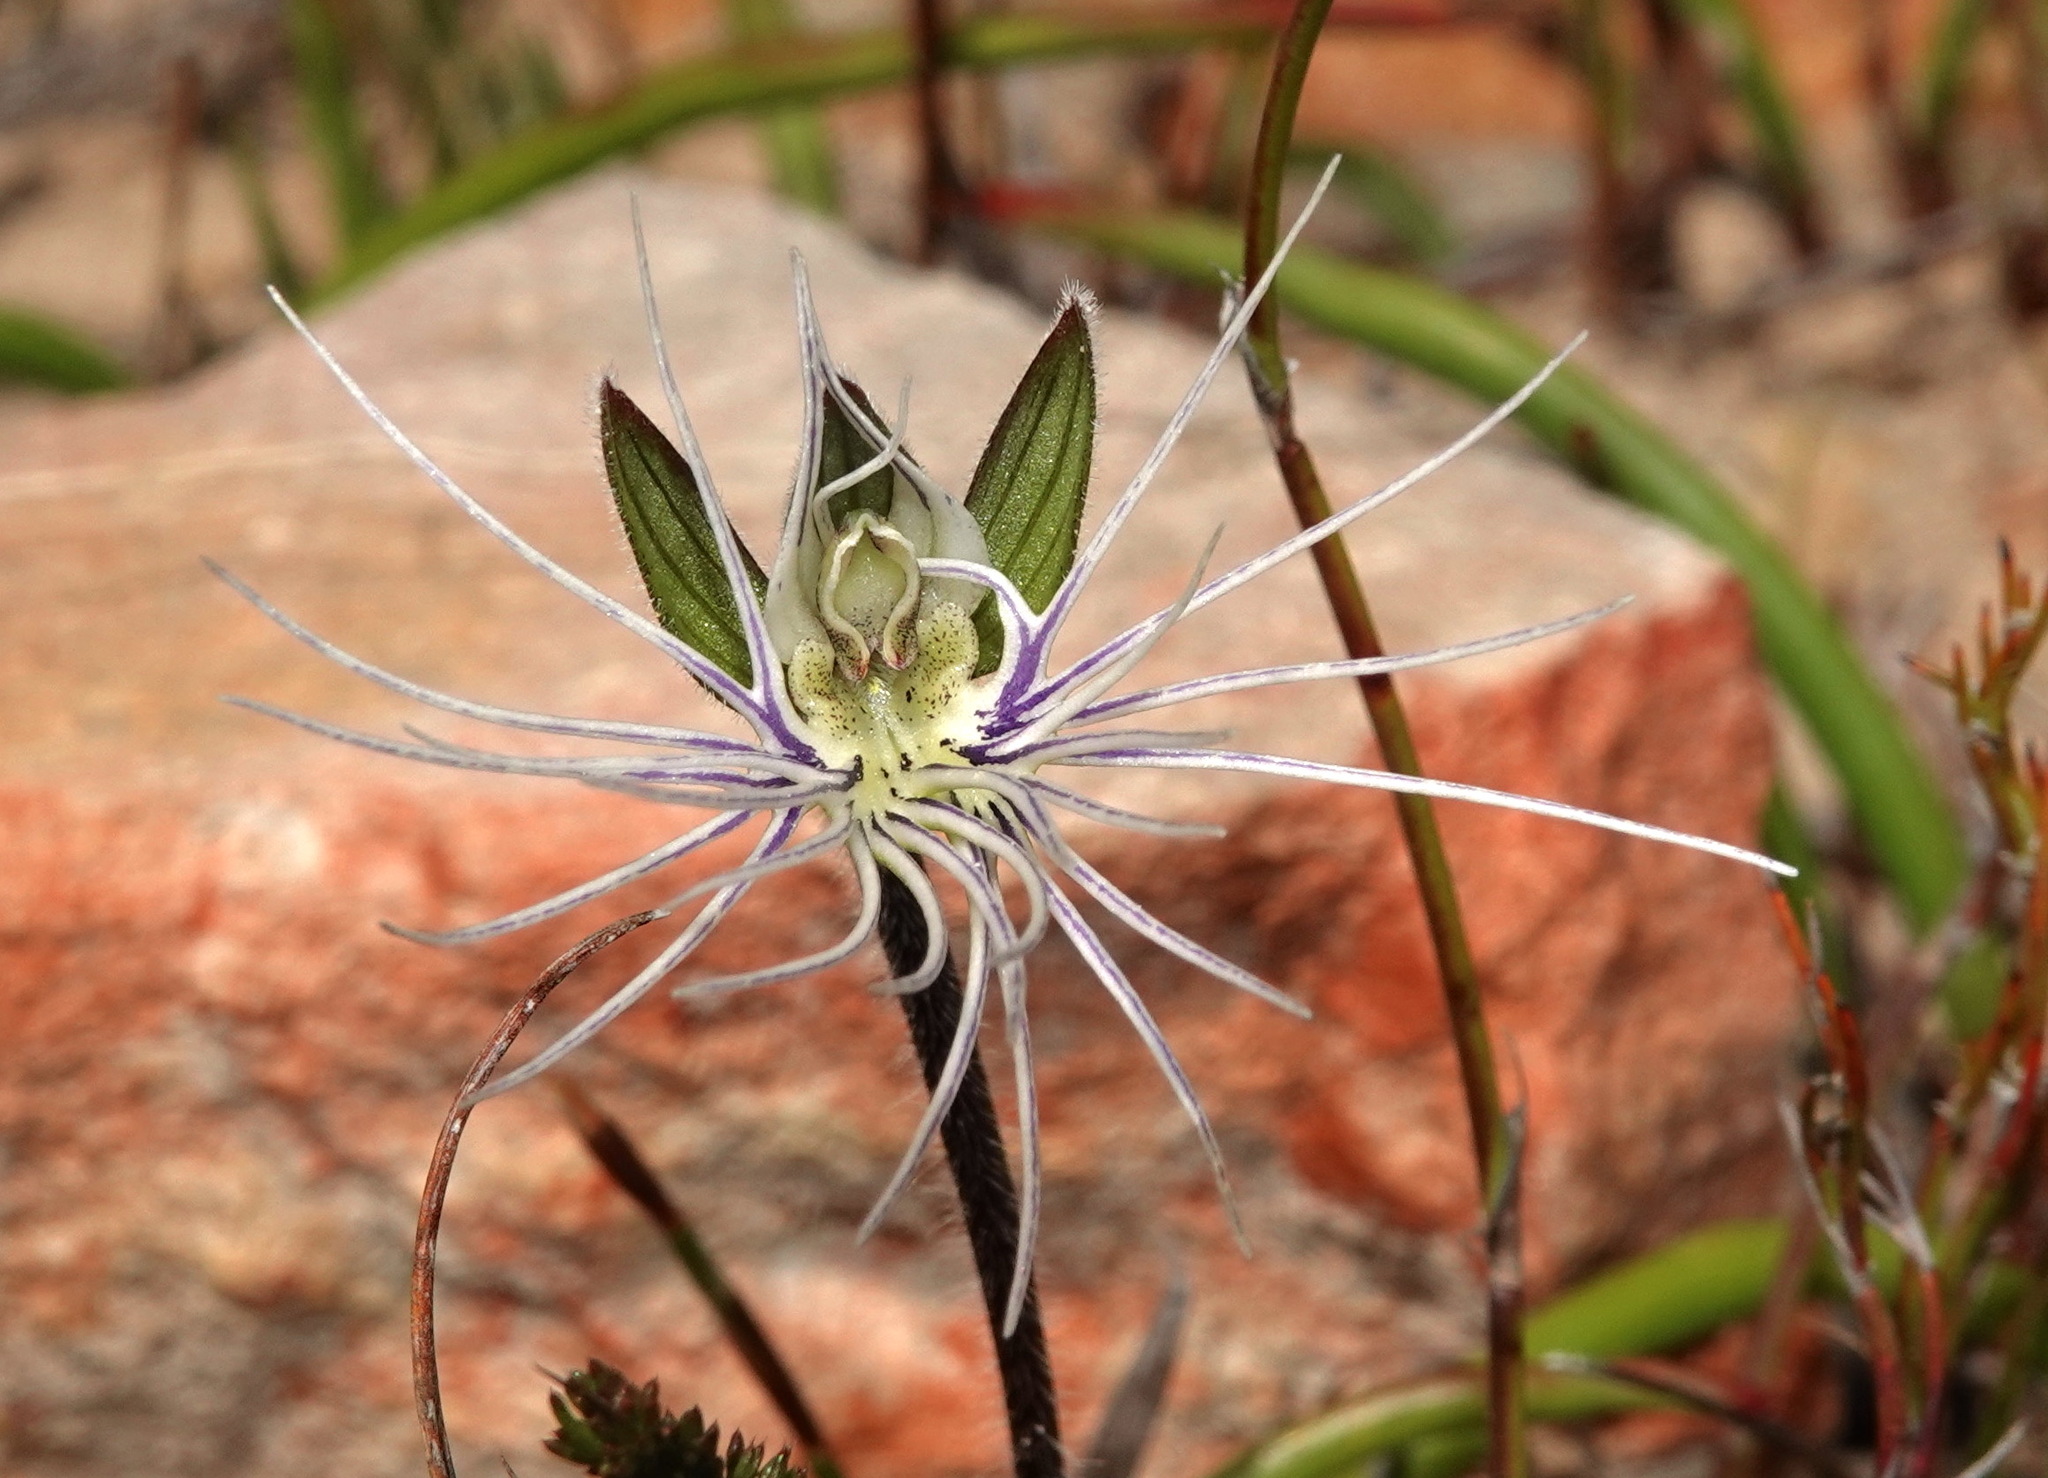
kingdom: Plantae
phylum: Tracheophyta
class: Liliopsida
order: Asparagales
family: Orchidaceae
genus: Holothrix
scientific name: Holothrix burmanniana
